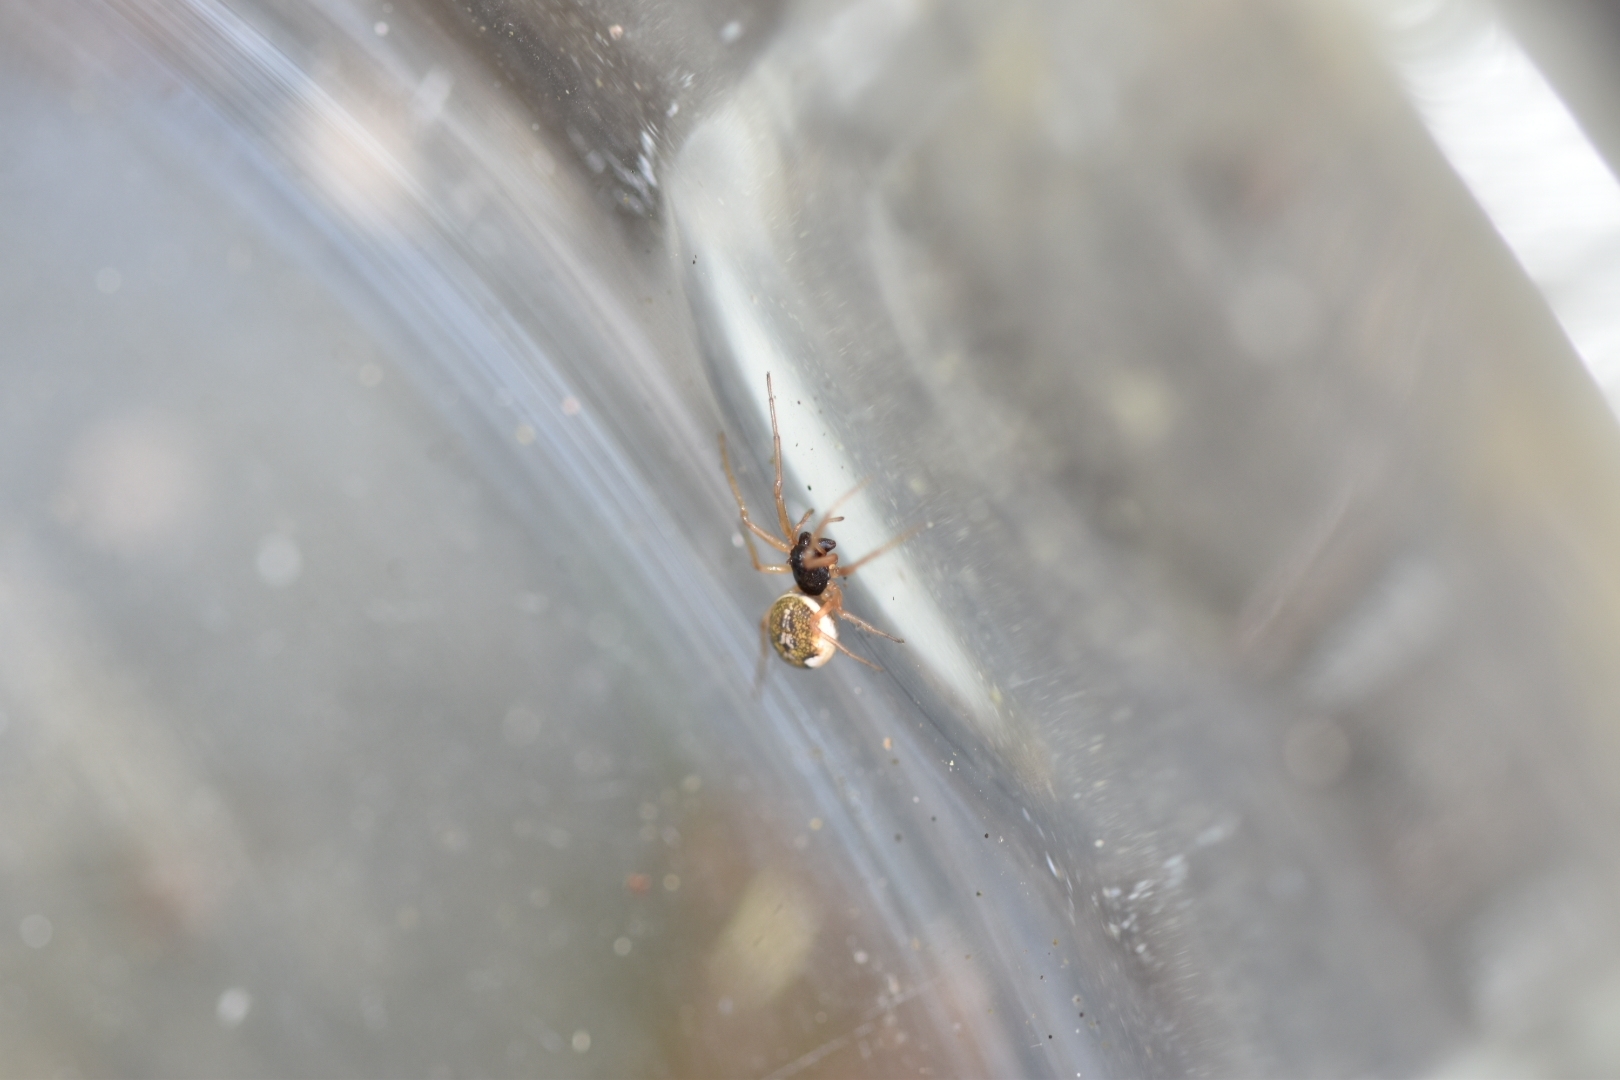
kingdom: Animalia
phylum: Arthropoda
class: Arachnida
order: Araneae
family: Tetragnathidae
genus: Pachygnatha
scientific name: Pachygnatha degeeri
